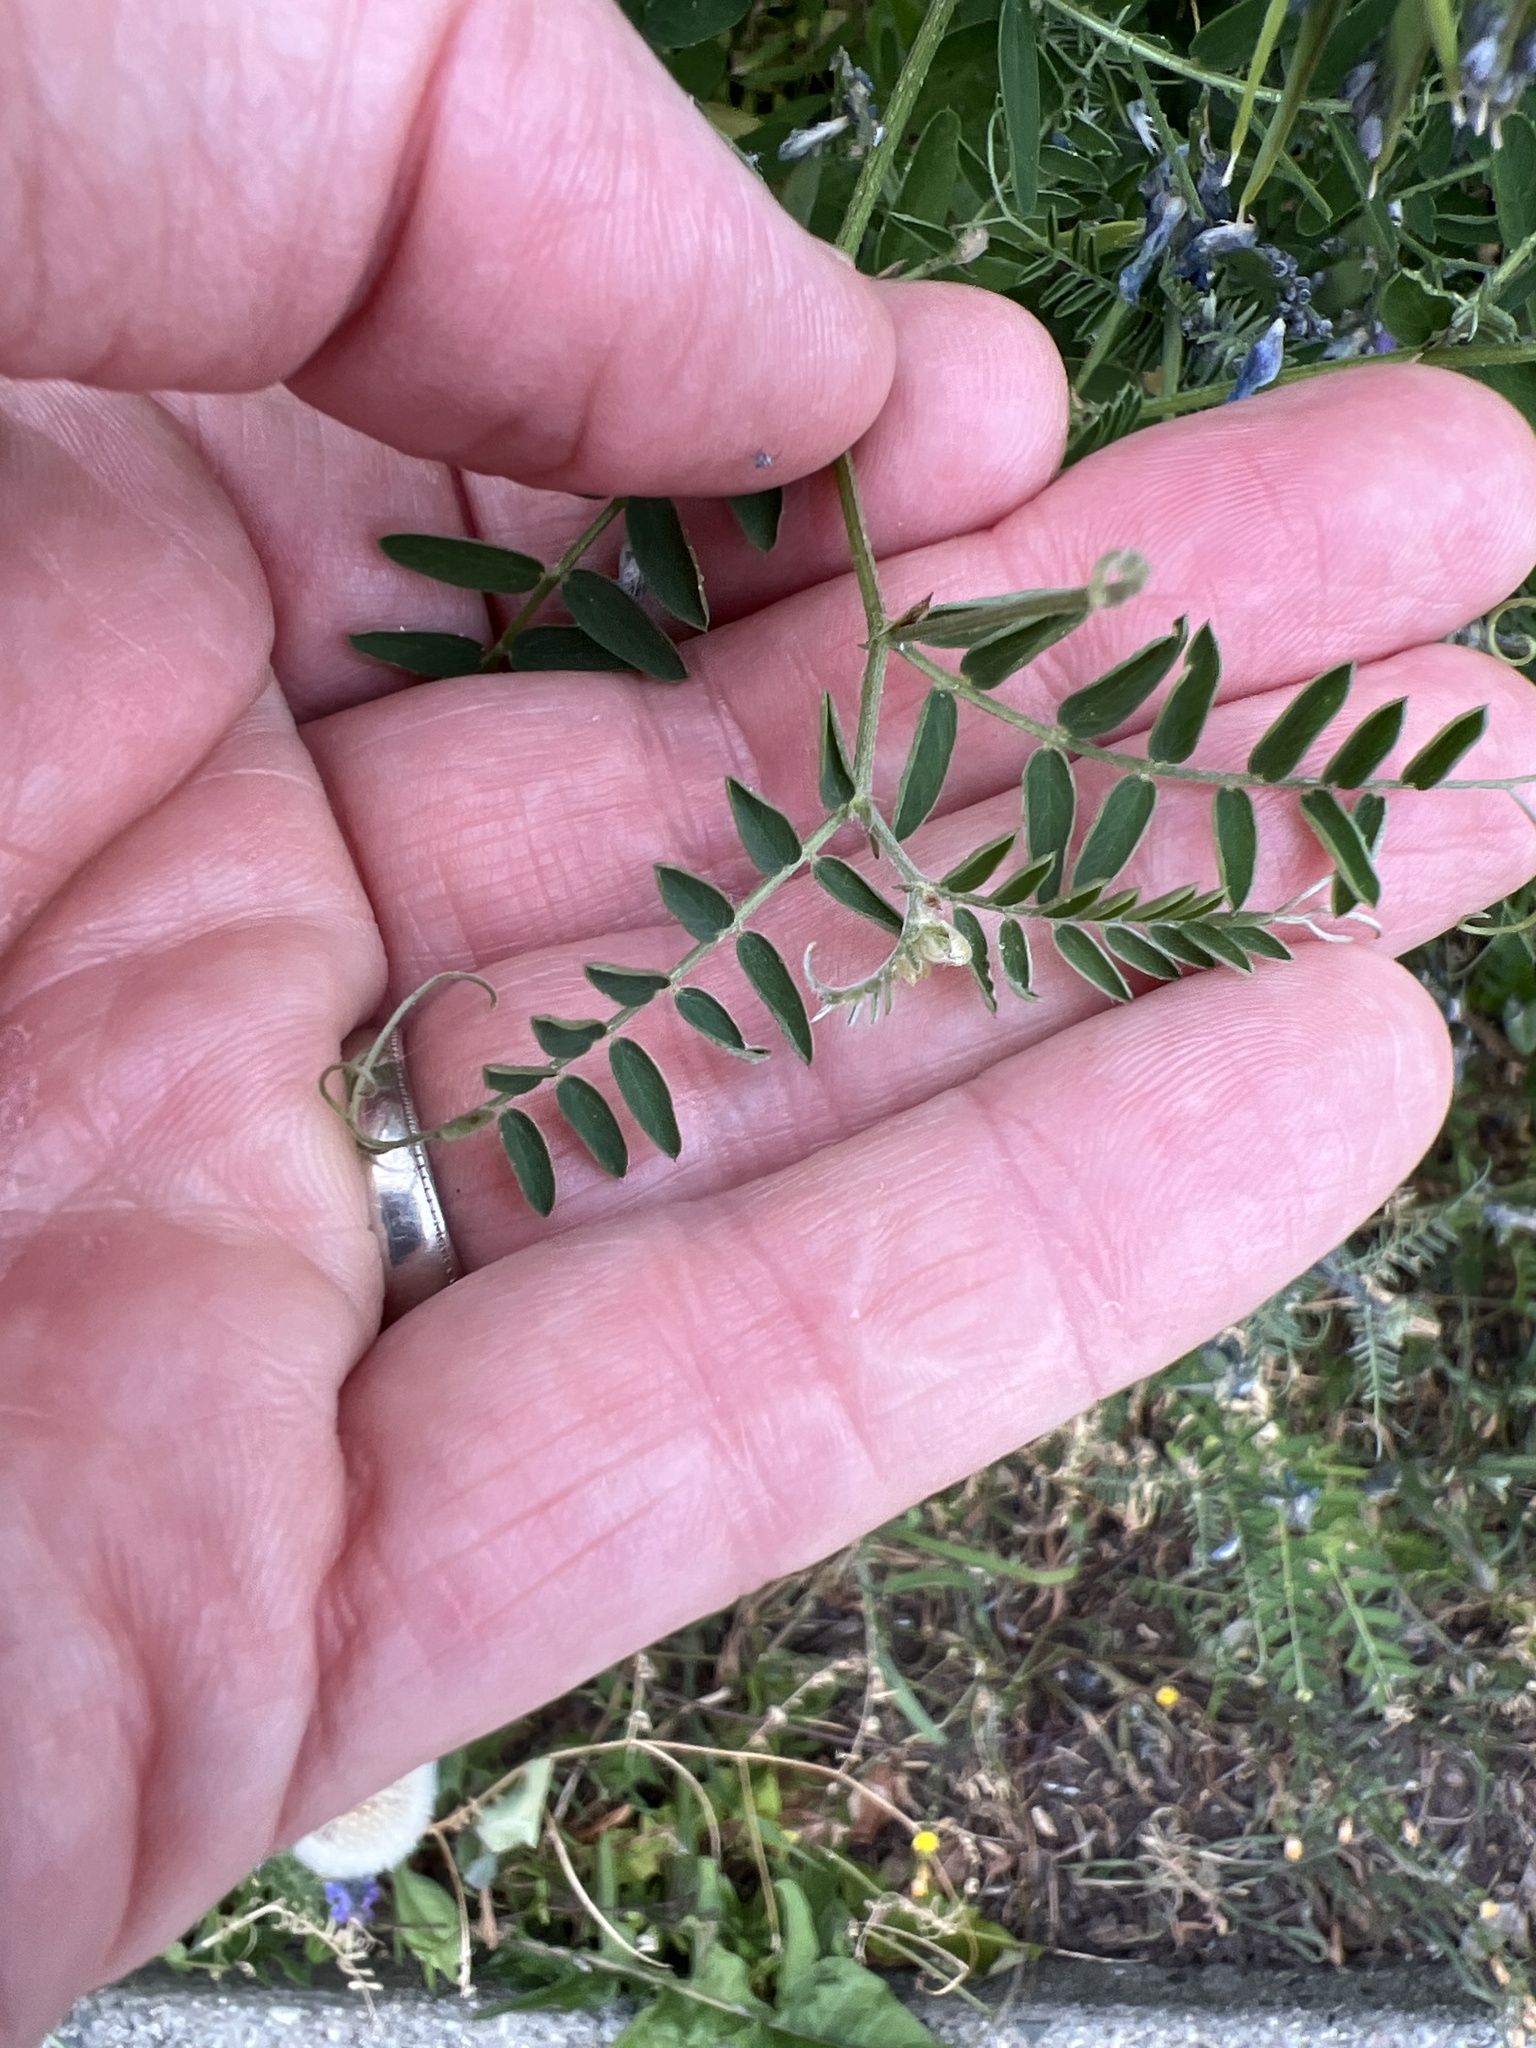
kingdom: Plantae
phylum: Tracheophyta
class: Magnoliopsida
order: Fabales
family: Fabaceae
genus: Vicia
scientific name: Vicia cracca
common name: Bird vetch
